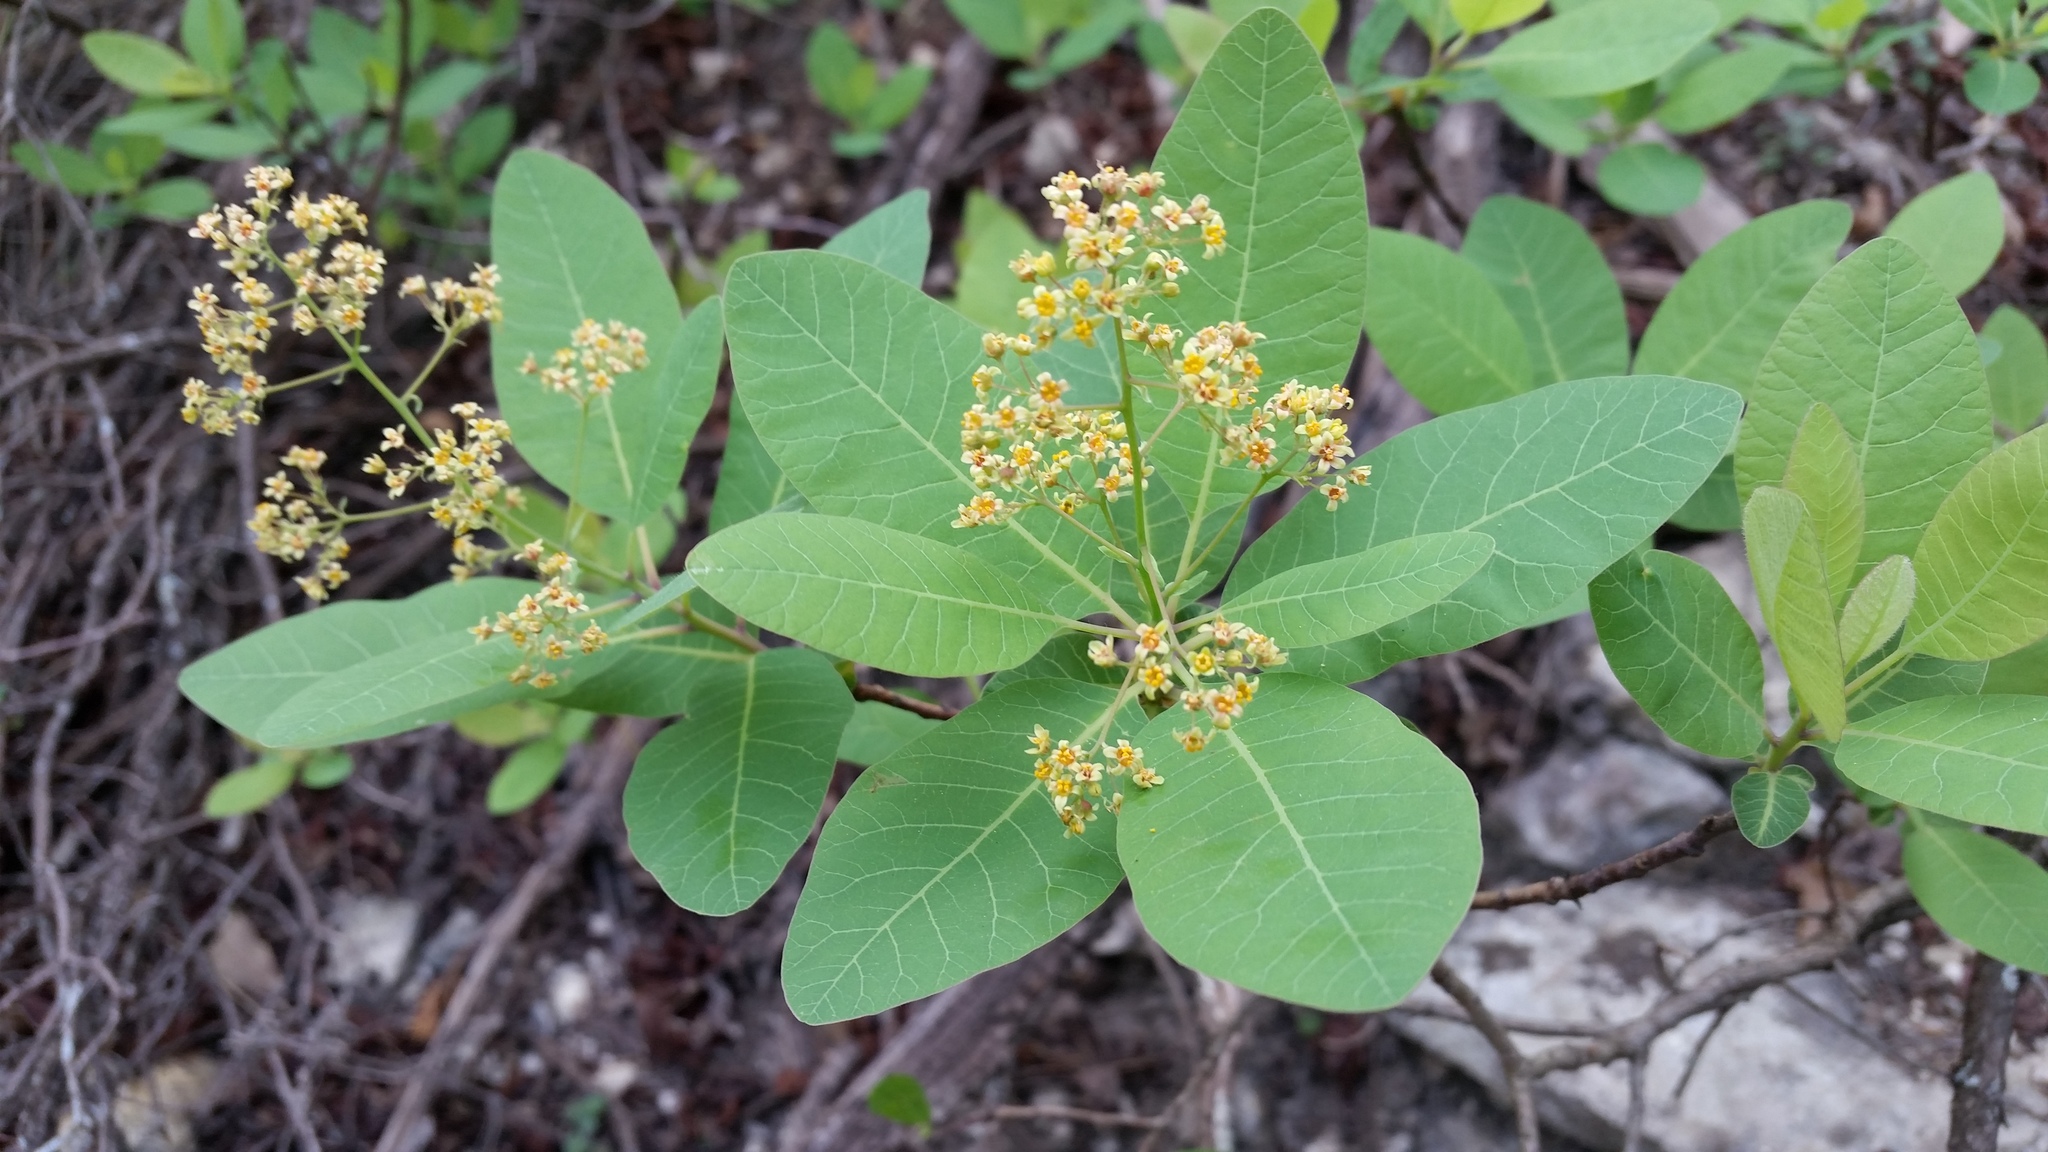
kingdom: Plantae
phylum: Tracheophyta
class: Magnoliopsida
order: Sapindales
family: Anacardiaceae
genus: Cotinus
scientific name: Cotinus obovatus
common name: Chittamwood
